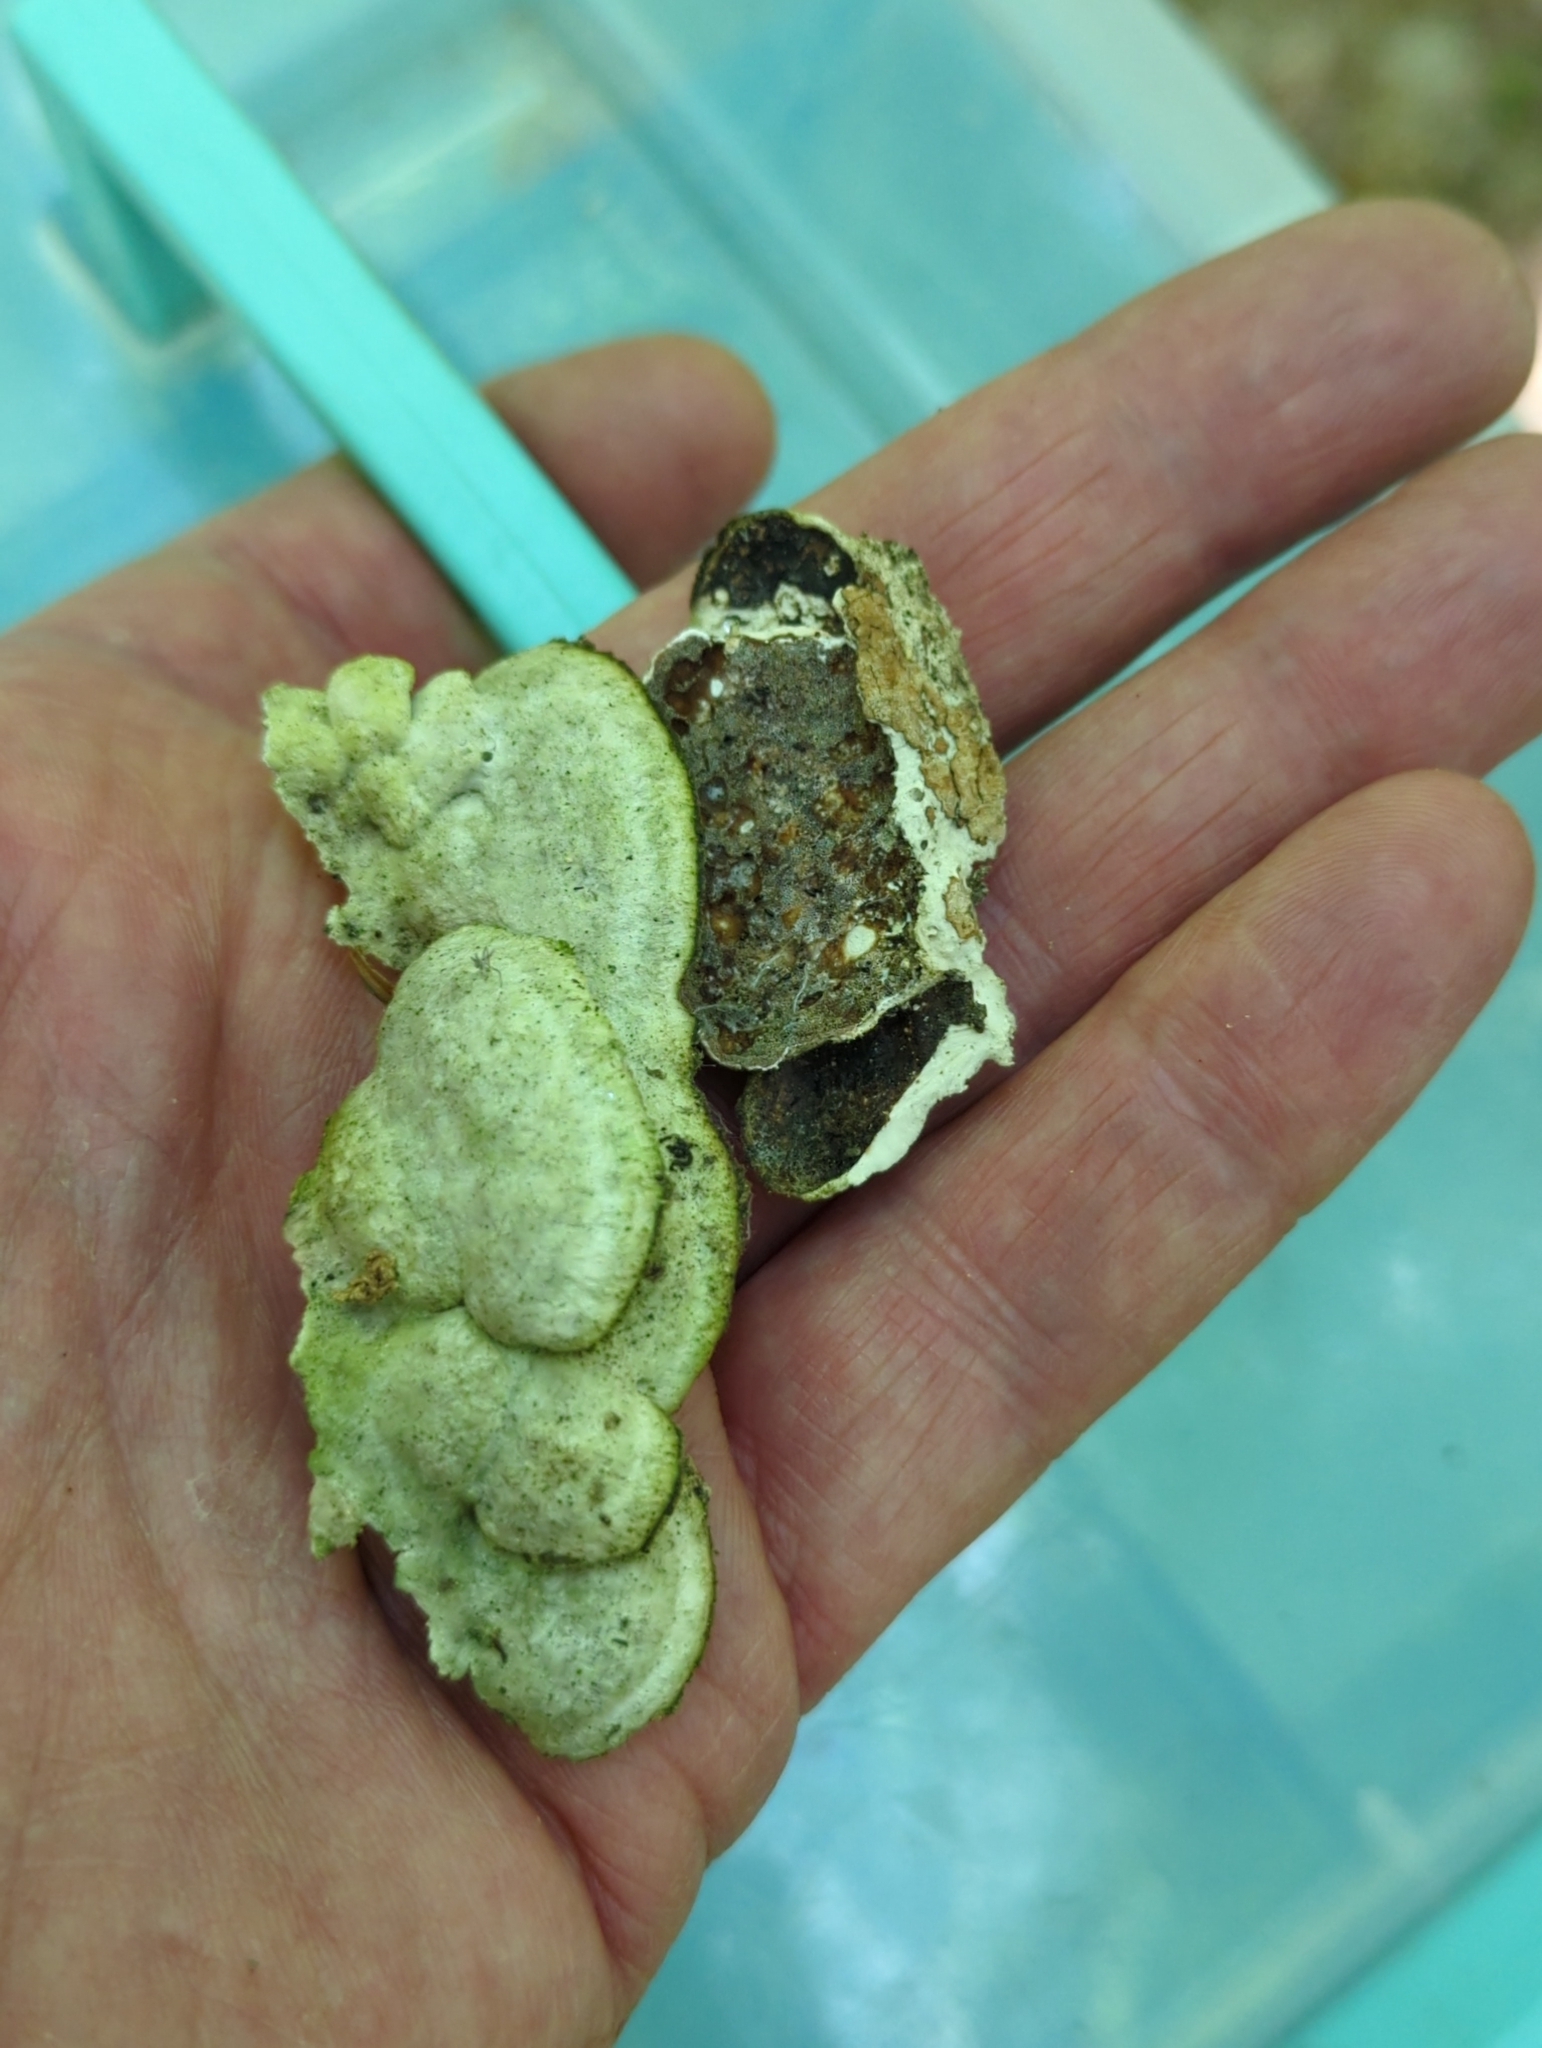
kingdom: Fungi
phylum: Basidiomycota
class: Agaricomycetes
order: Polyporales
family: Phanerochaetaceae
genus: Bjerkandera
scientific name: Bjerkandera adusta
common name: Smoky bracket
